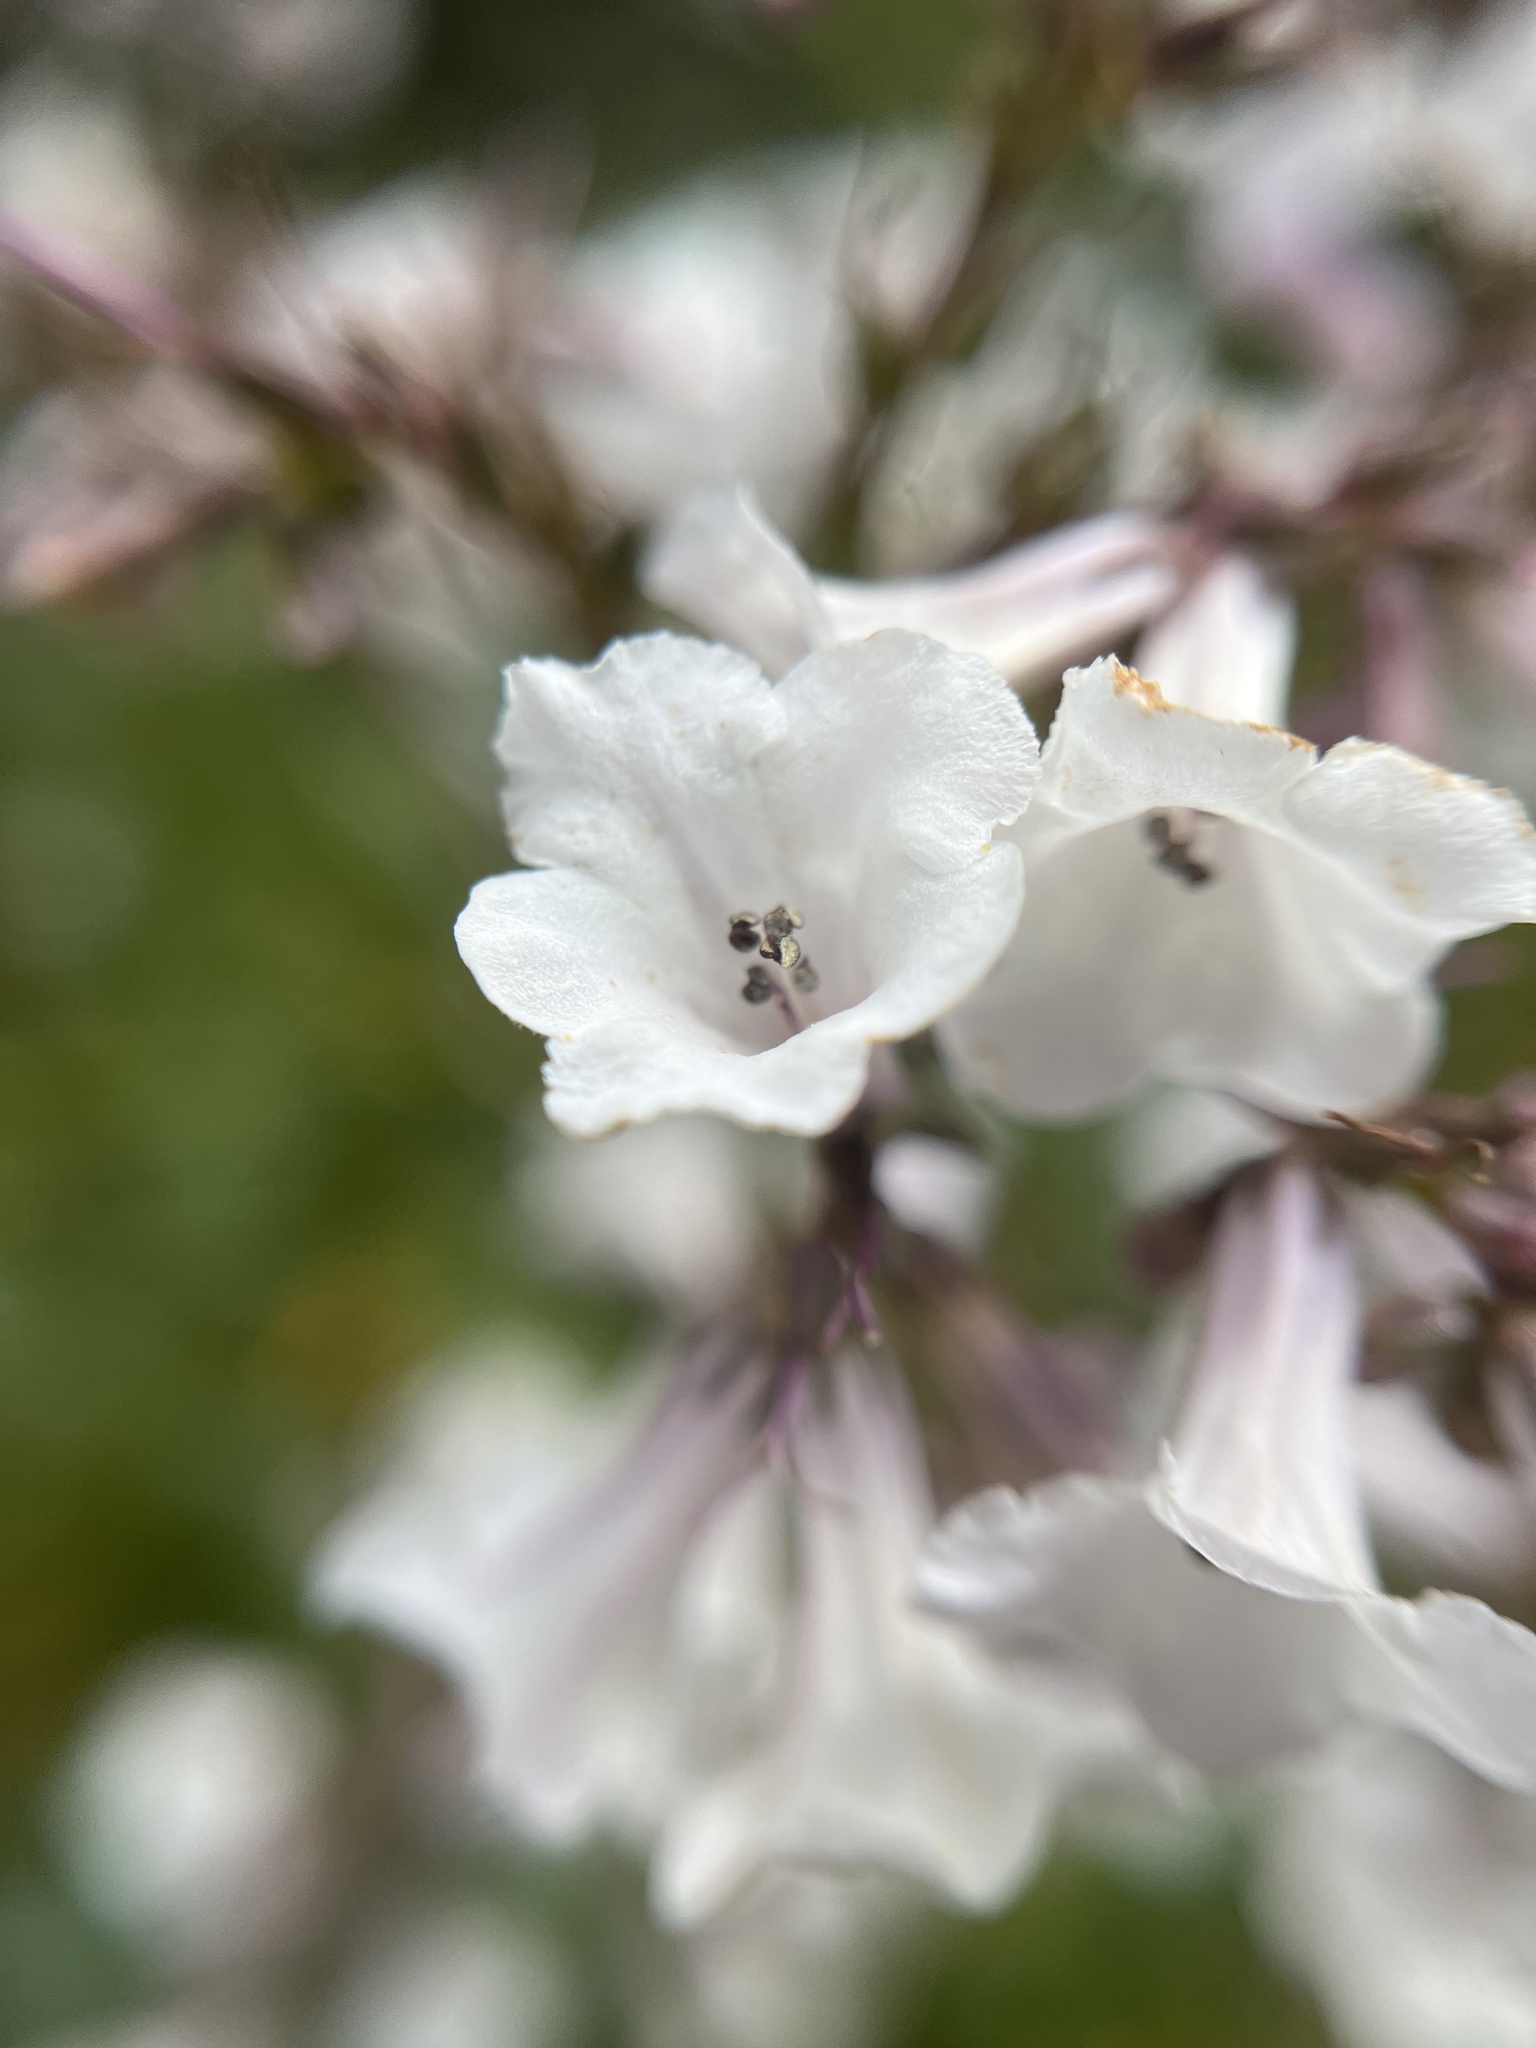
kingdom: Plantae
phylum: Tracheophyta
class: Magnoliopsida
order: Boraginales
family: Namaceae
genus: Eriodictyon
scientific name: Eriodictyon californicum
